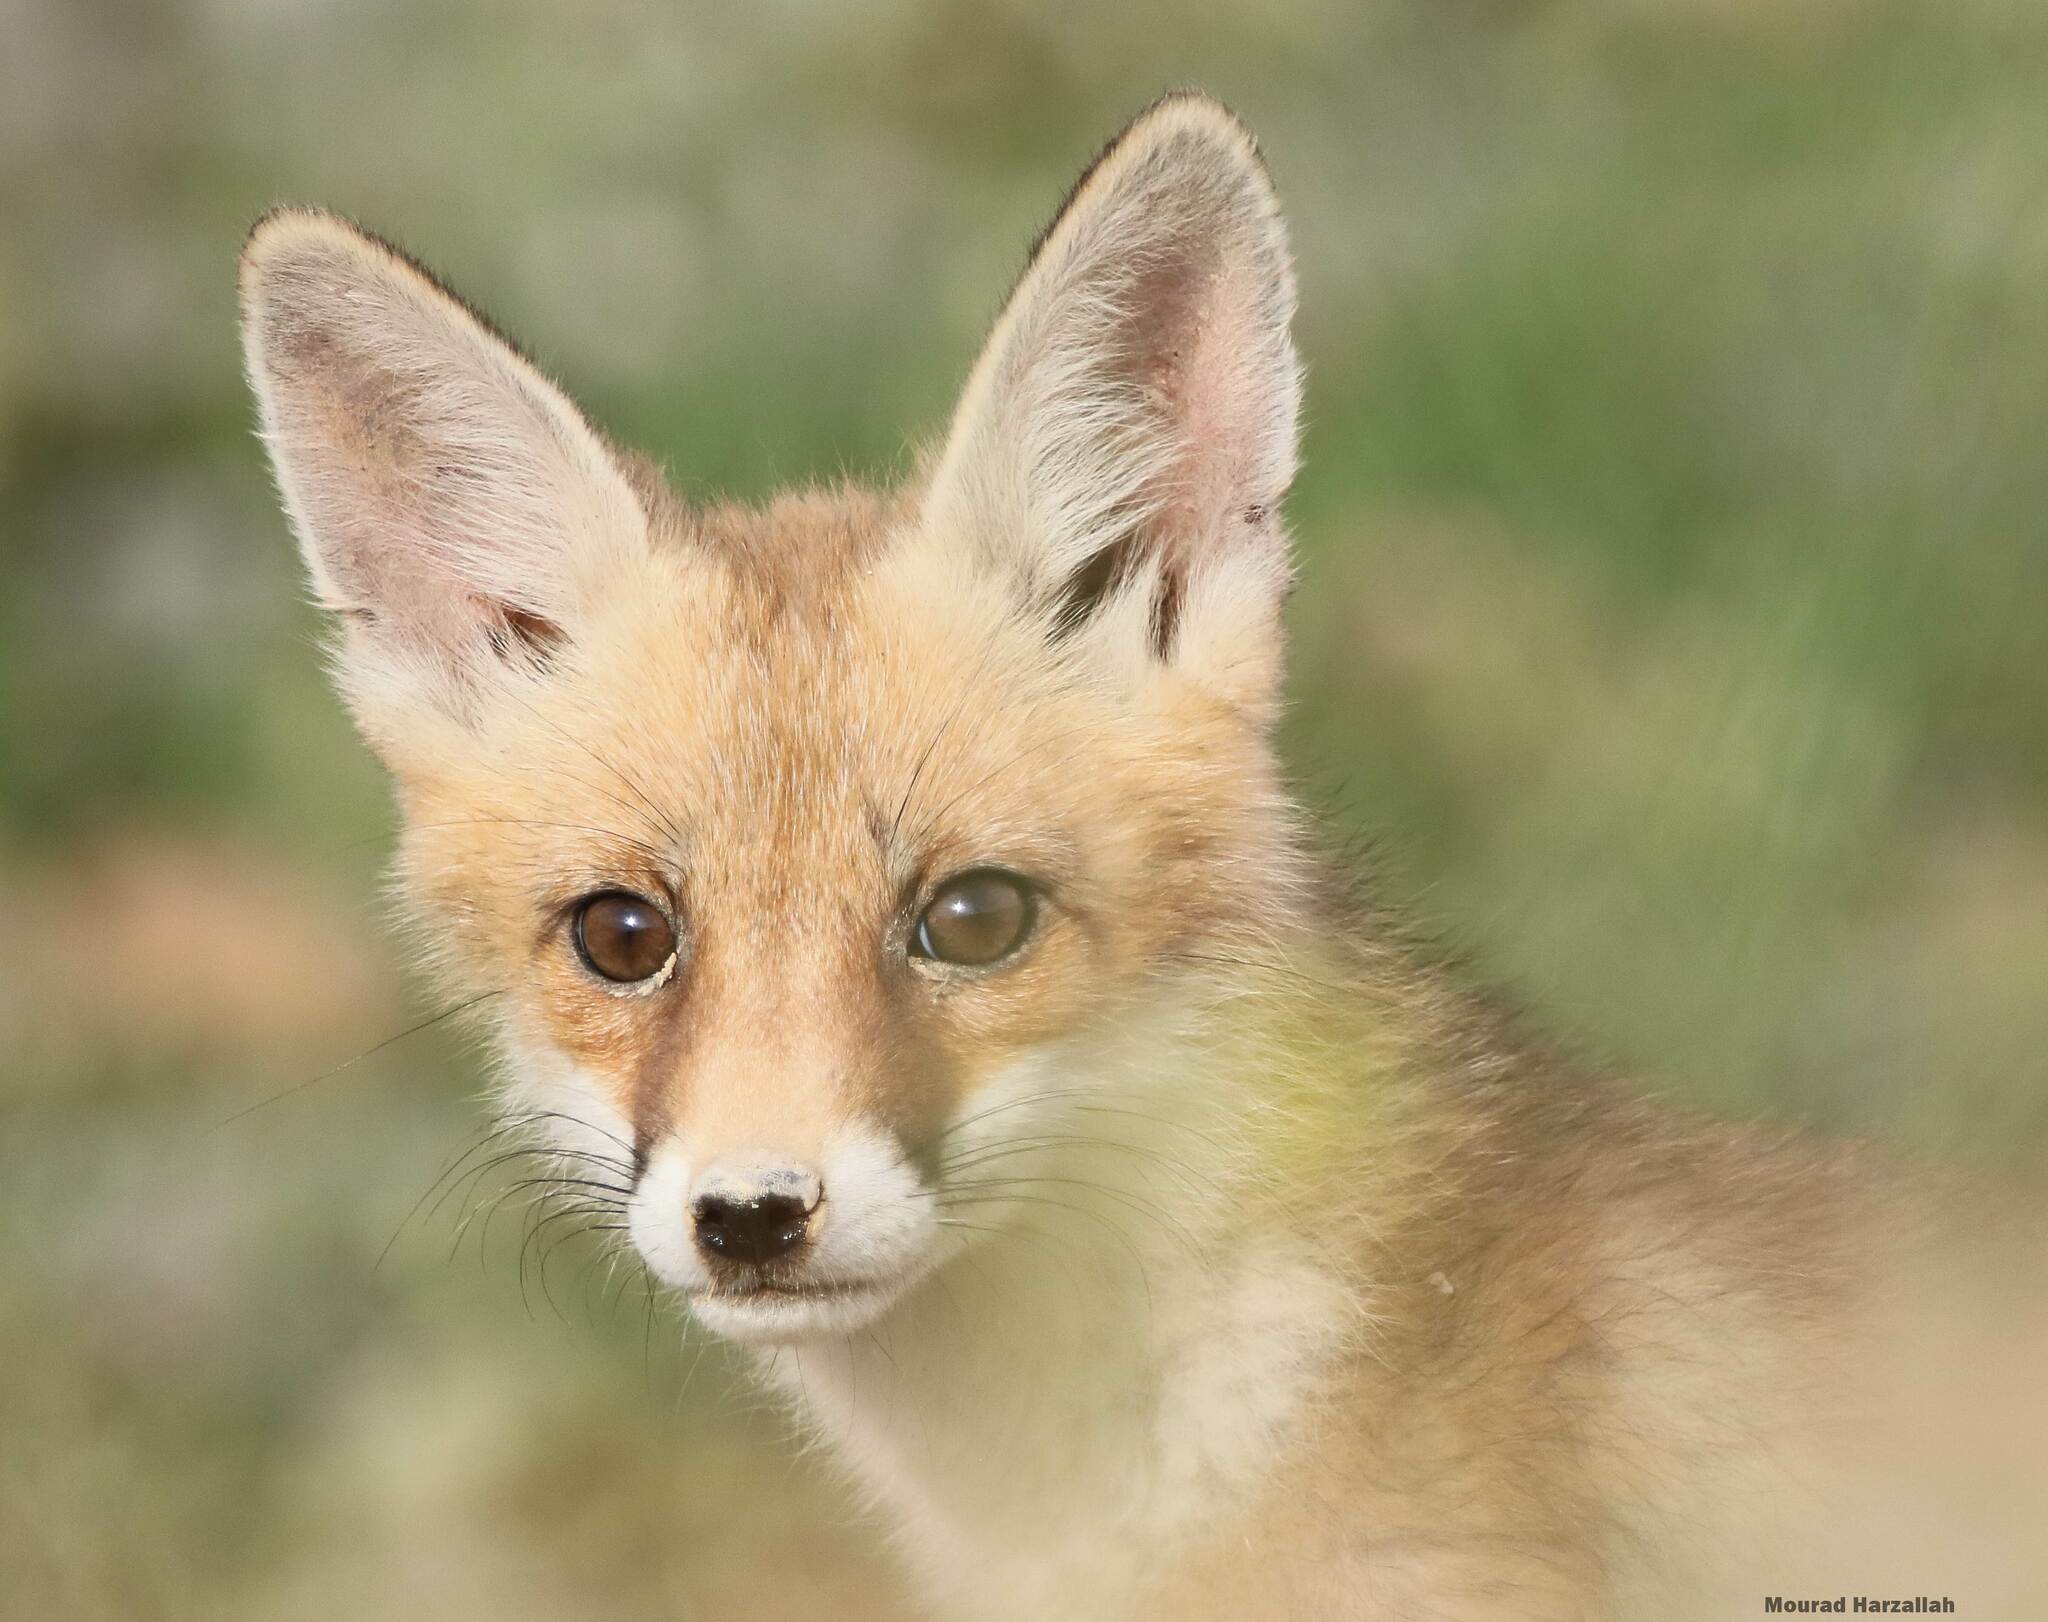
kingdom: Animalia
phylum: Chordata
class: Mammalia
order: Carnivora
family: Canidae
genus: Vulpes
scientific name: Vulpes vulpes
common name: Red fox
